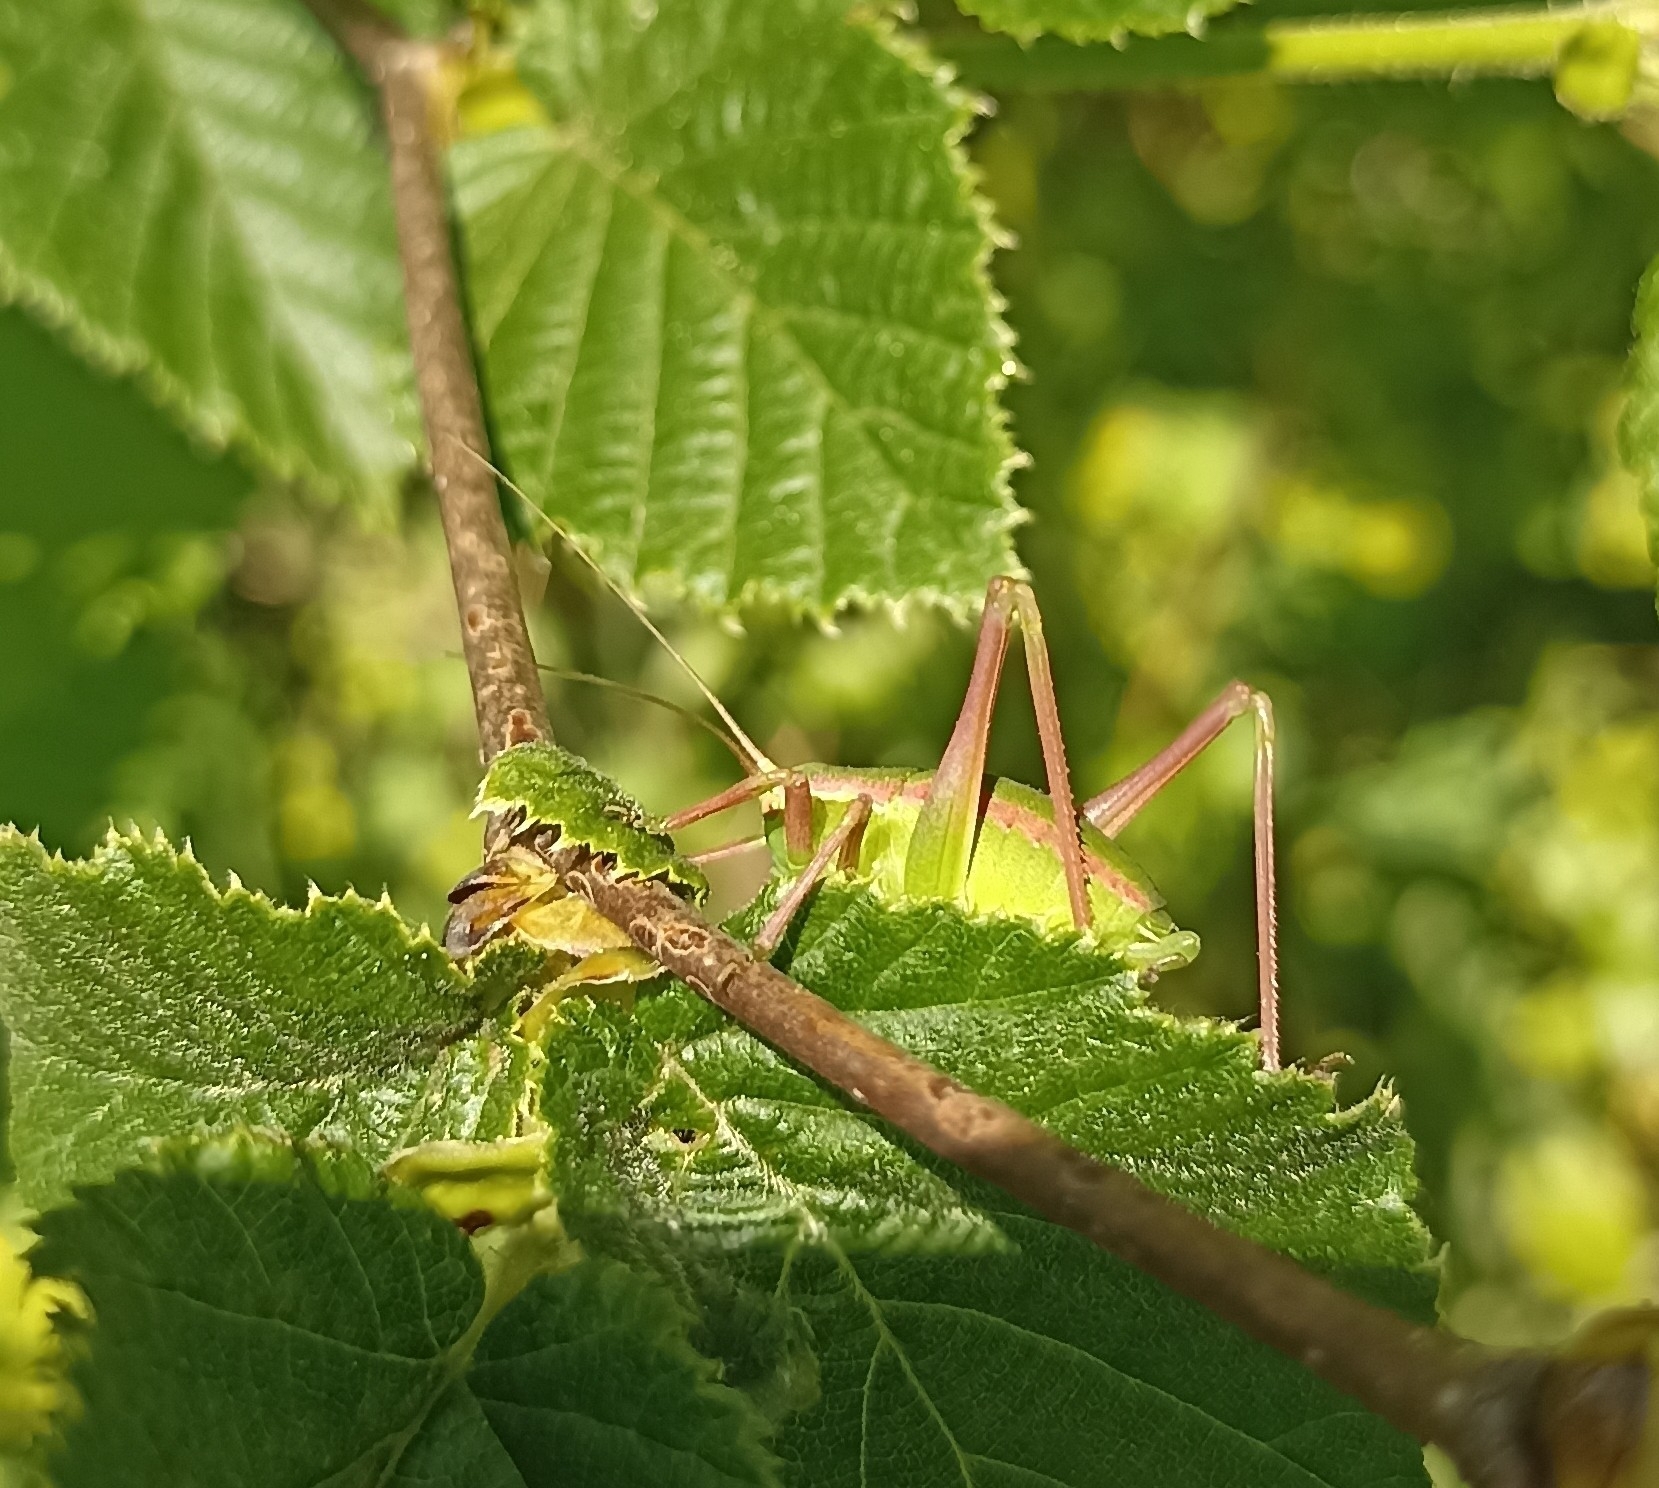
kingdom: Animalia
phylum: Arthropoda
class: Insecta
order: Orthoptera
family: Tettigoniidae
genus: Isophya
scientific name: Isophya pyrenaea
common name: Pyrenean plump bush-cricket
